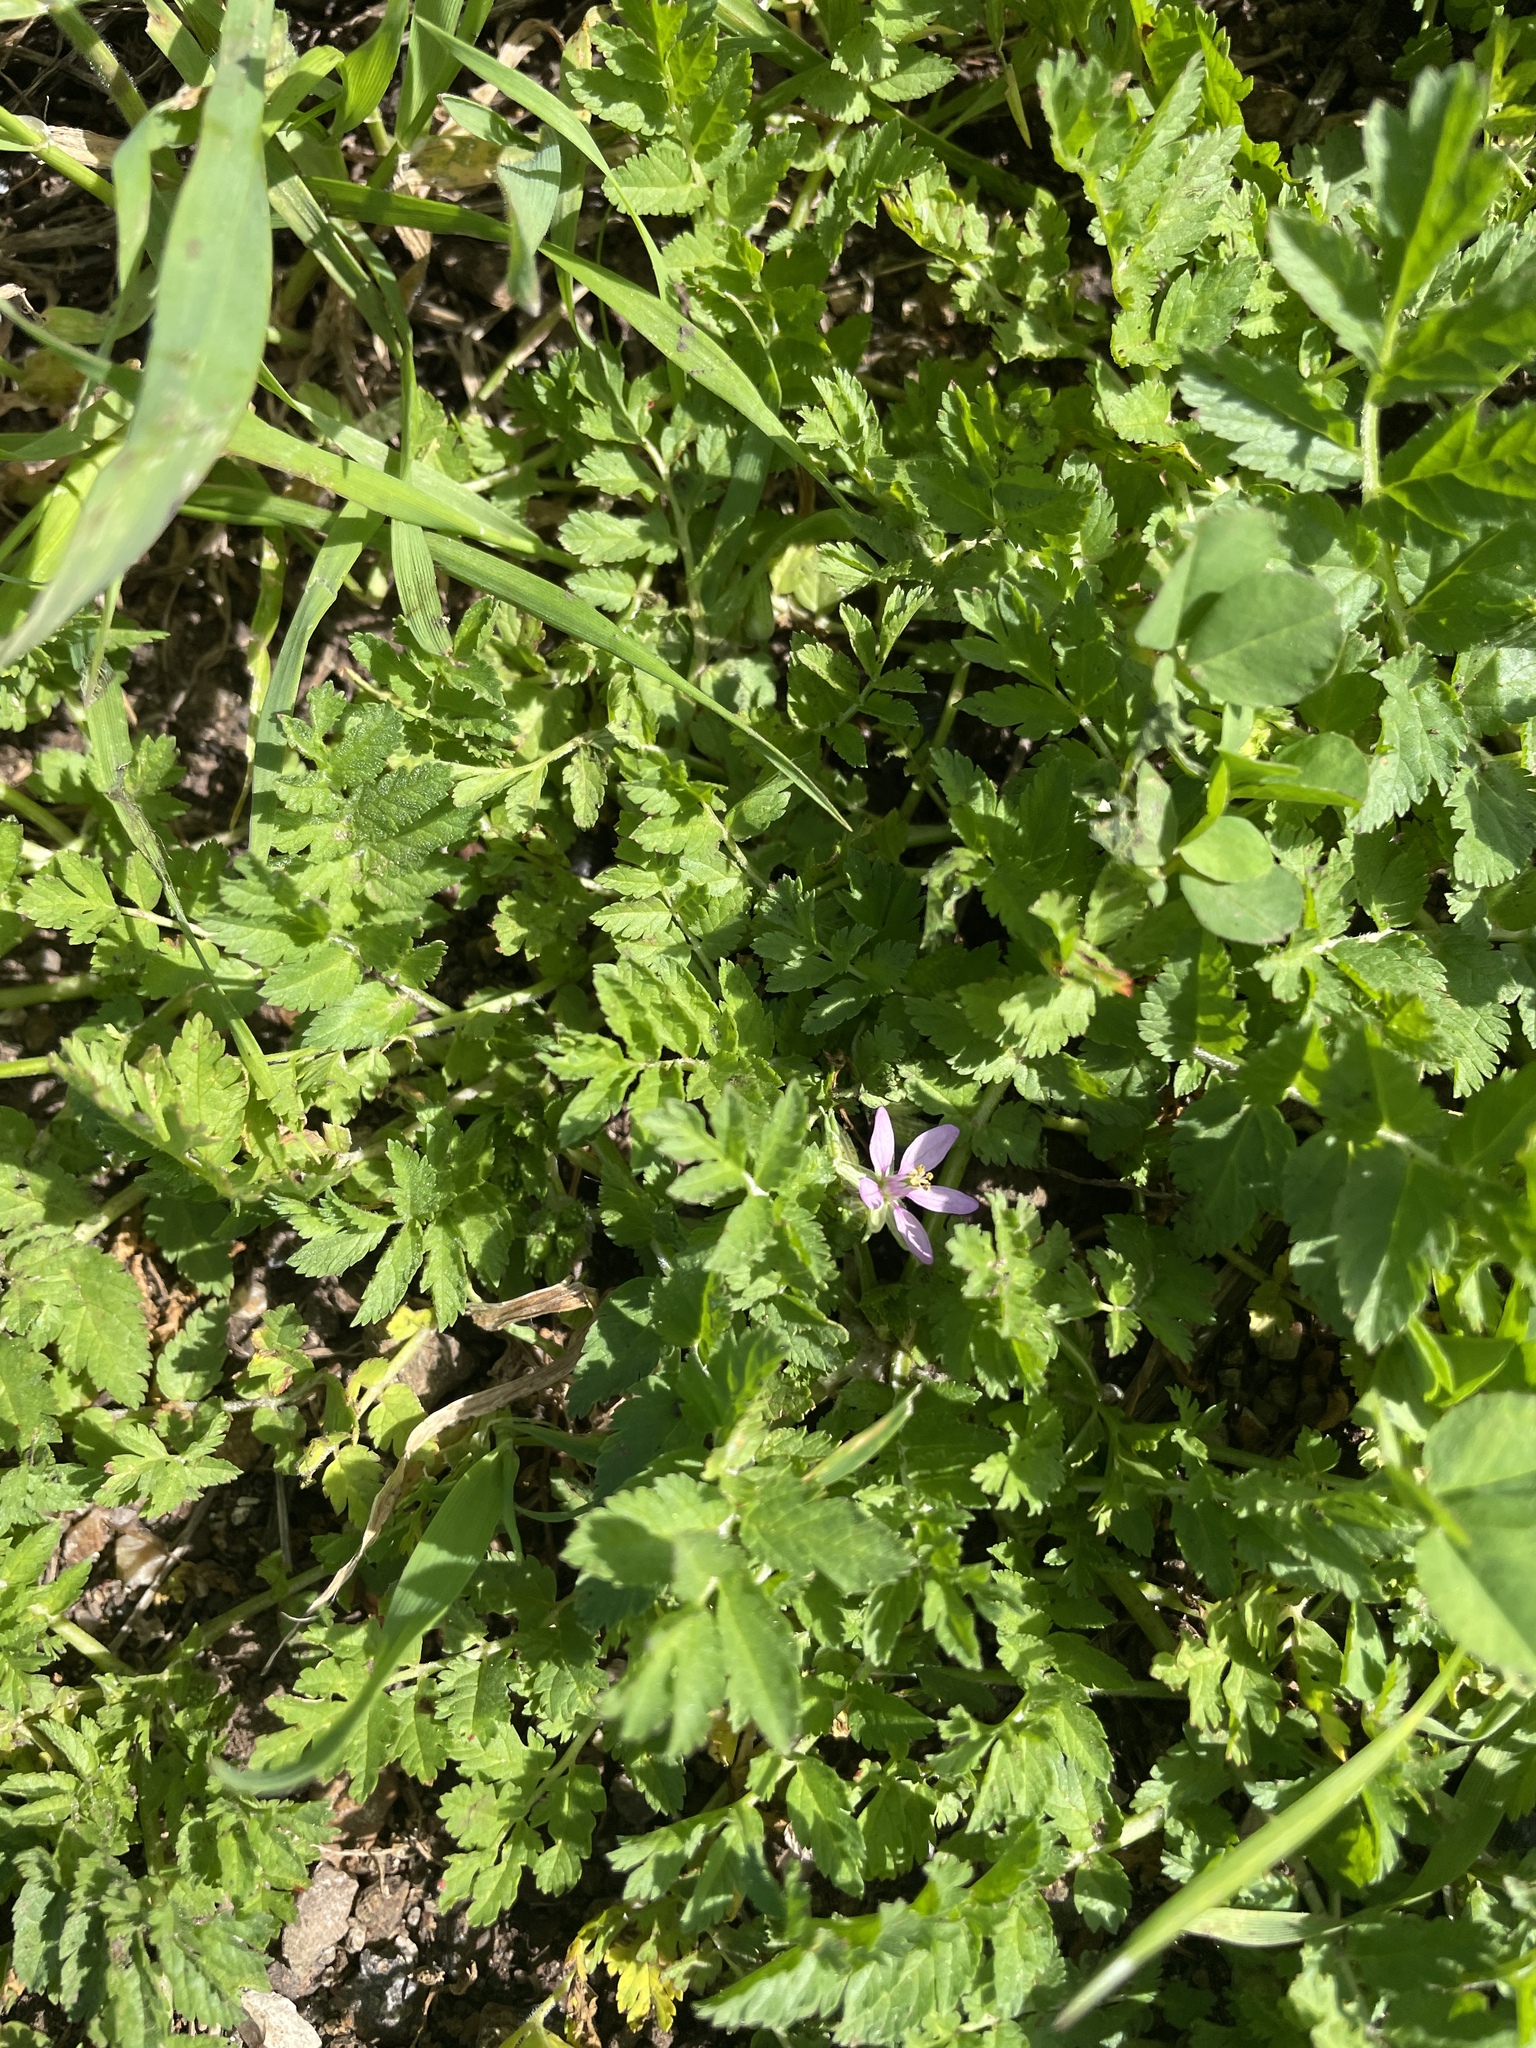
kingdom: Plantae
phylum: Tracheophyta
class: Magnoliopsida
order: Geraniales
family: Geraniaceae
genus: Erodium
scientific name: Erodium moschatum
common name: Musk stork's-bill
